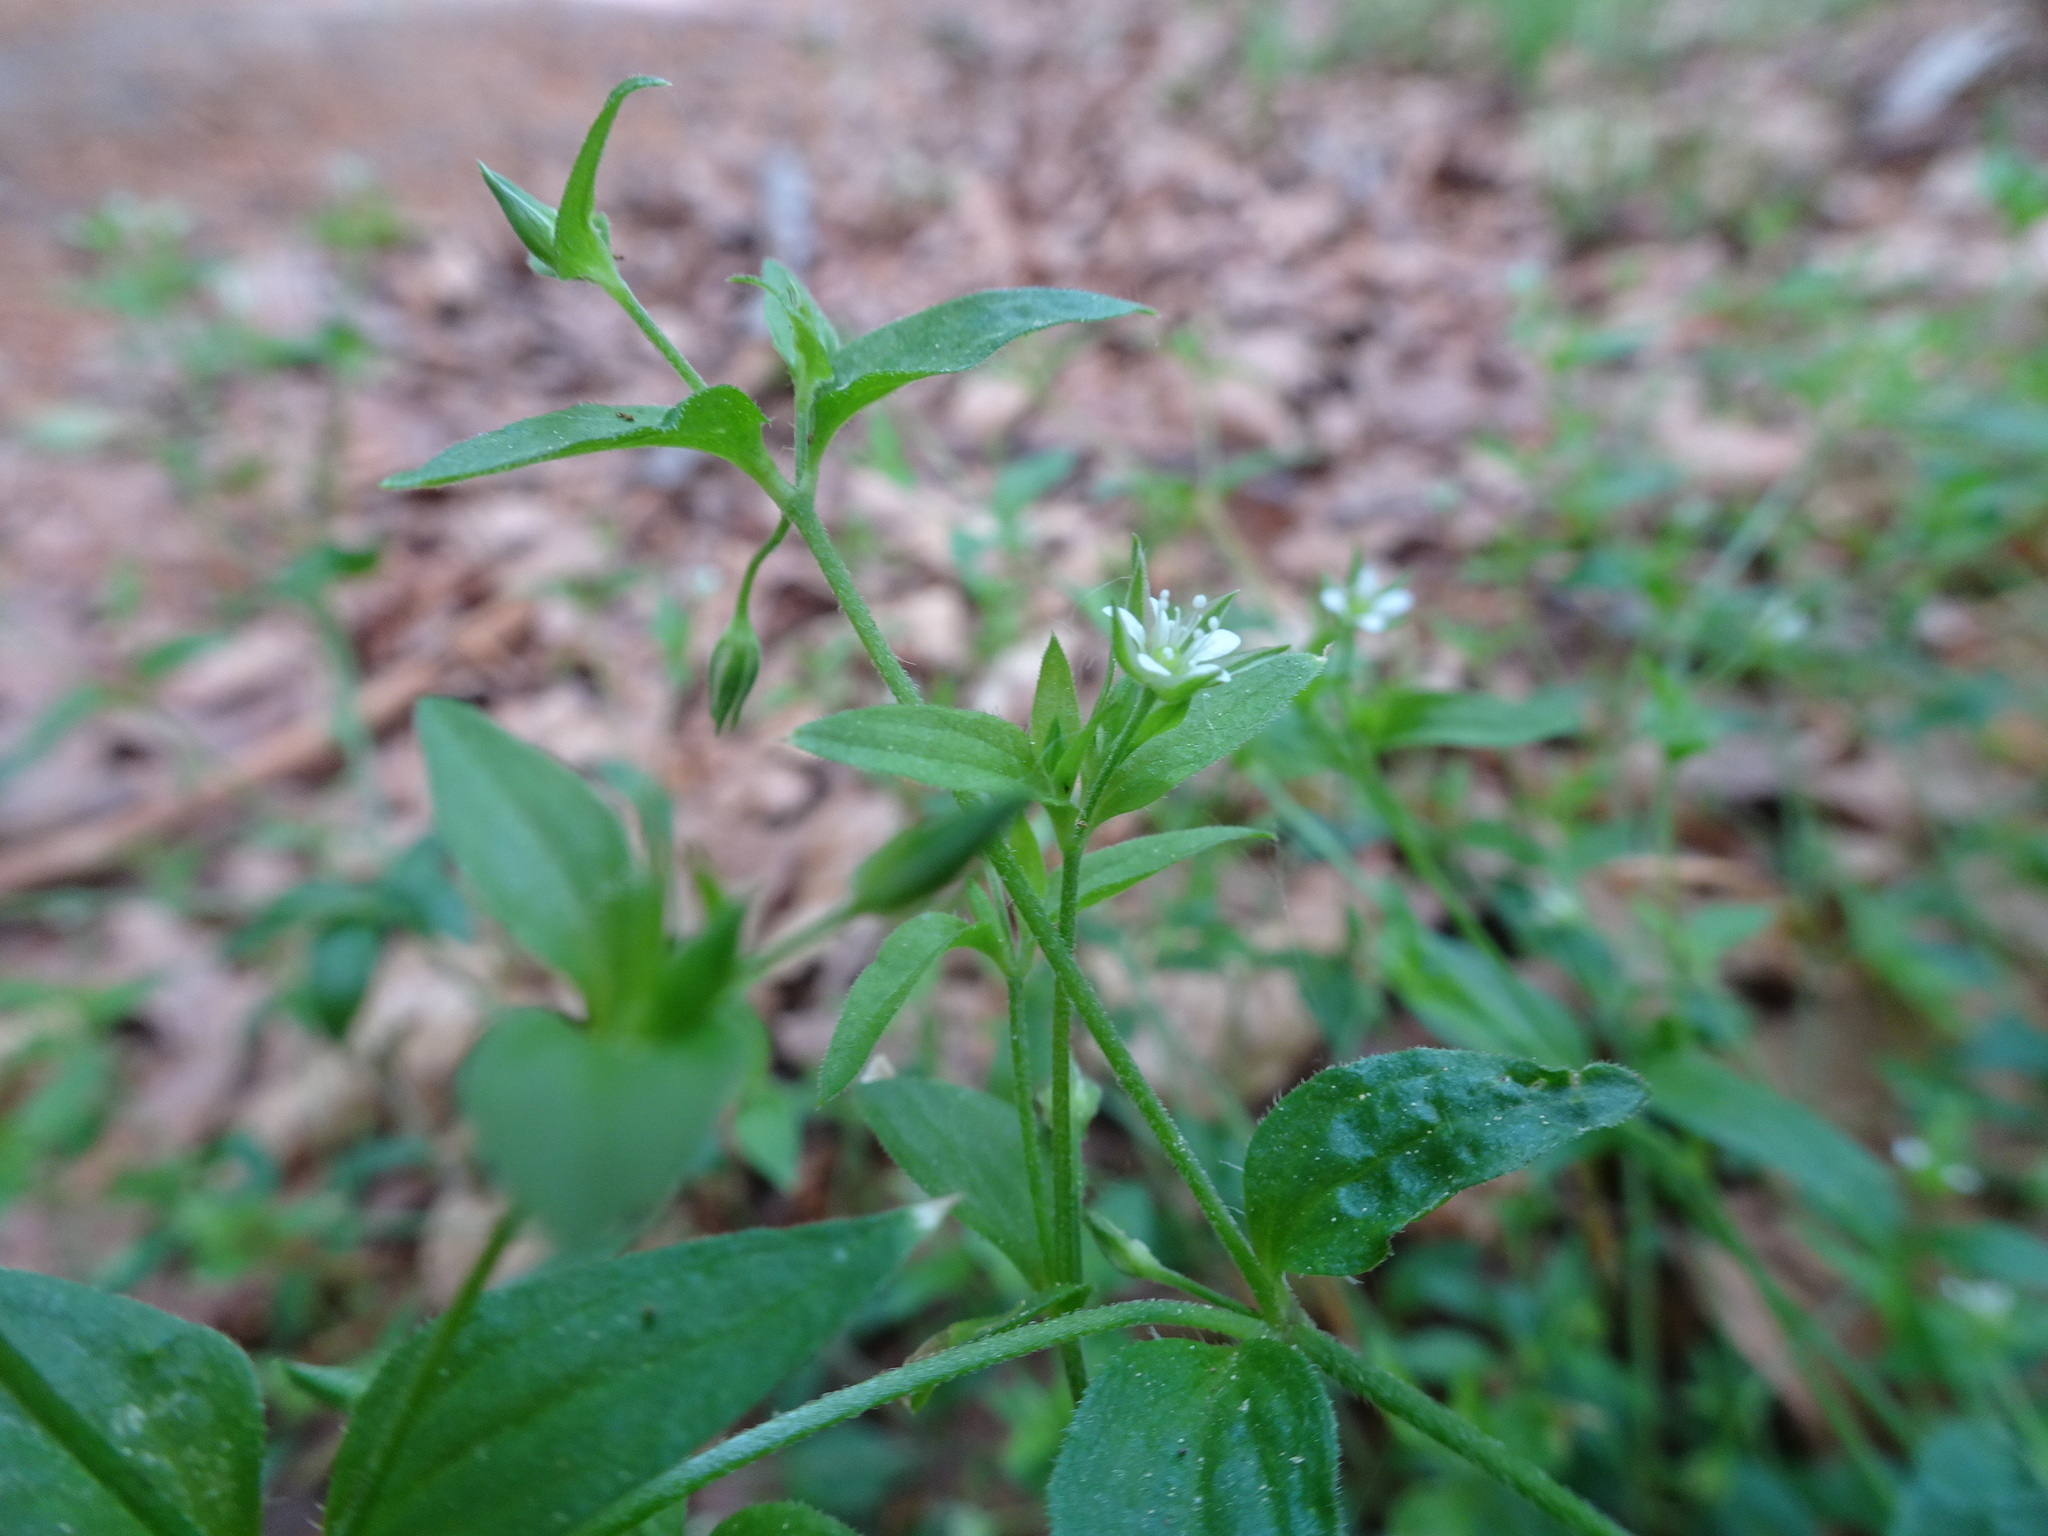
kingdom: Plantae
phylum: Tracheophyta
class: Magnoliopsida
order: Caryophyllales
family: Caryophyllaceae
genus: Moehringia
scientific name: Moehringia trinervia
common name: Three-nerved sandwort
